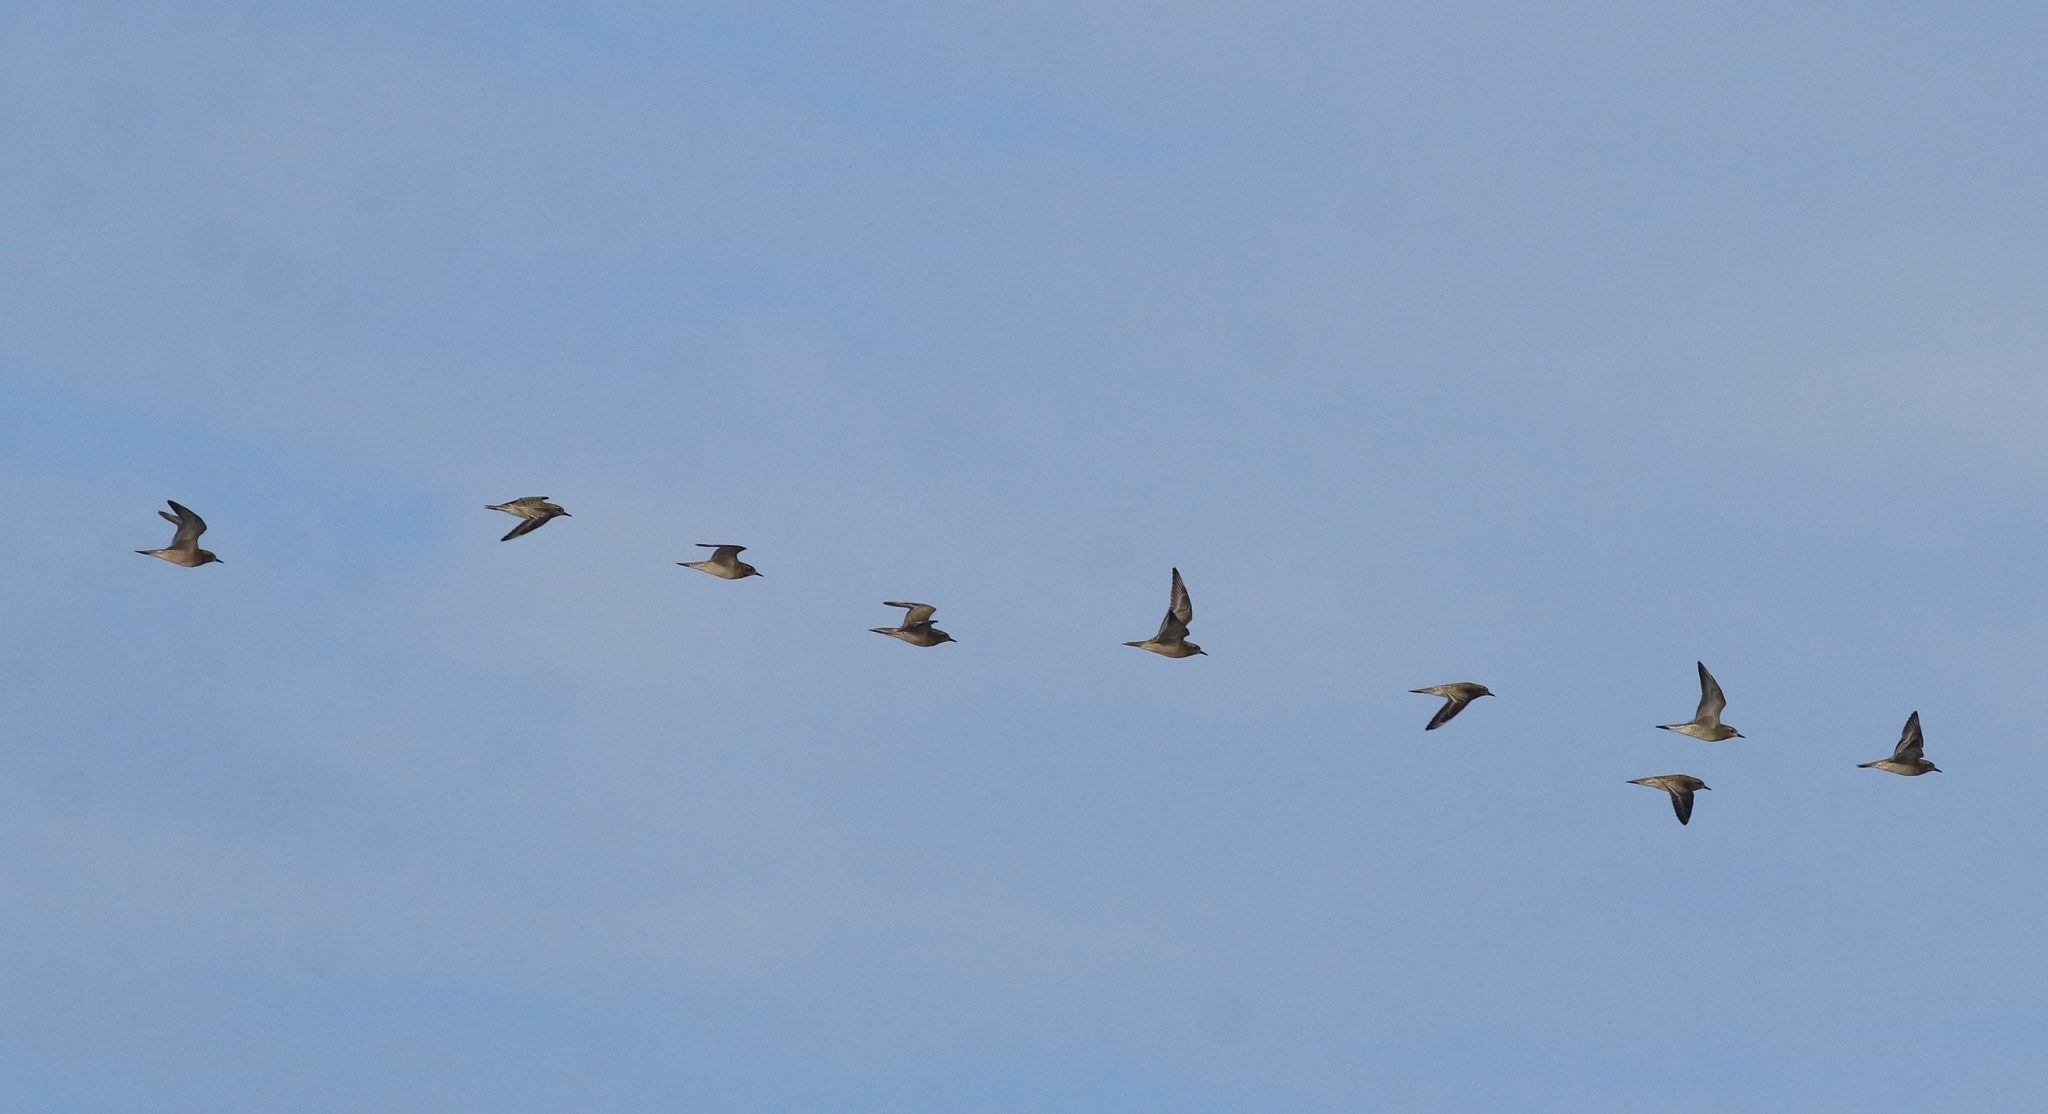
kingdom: Animalia
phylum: Chordata
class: Aves
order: Charadriiformes
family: Charadriidae
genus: Pluvialis
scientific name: Pluvialis squatarola
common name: Grey plover
